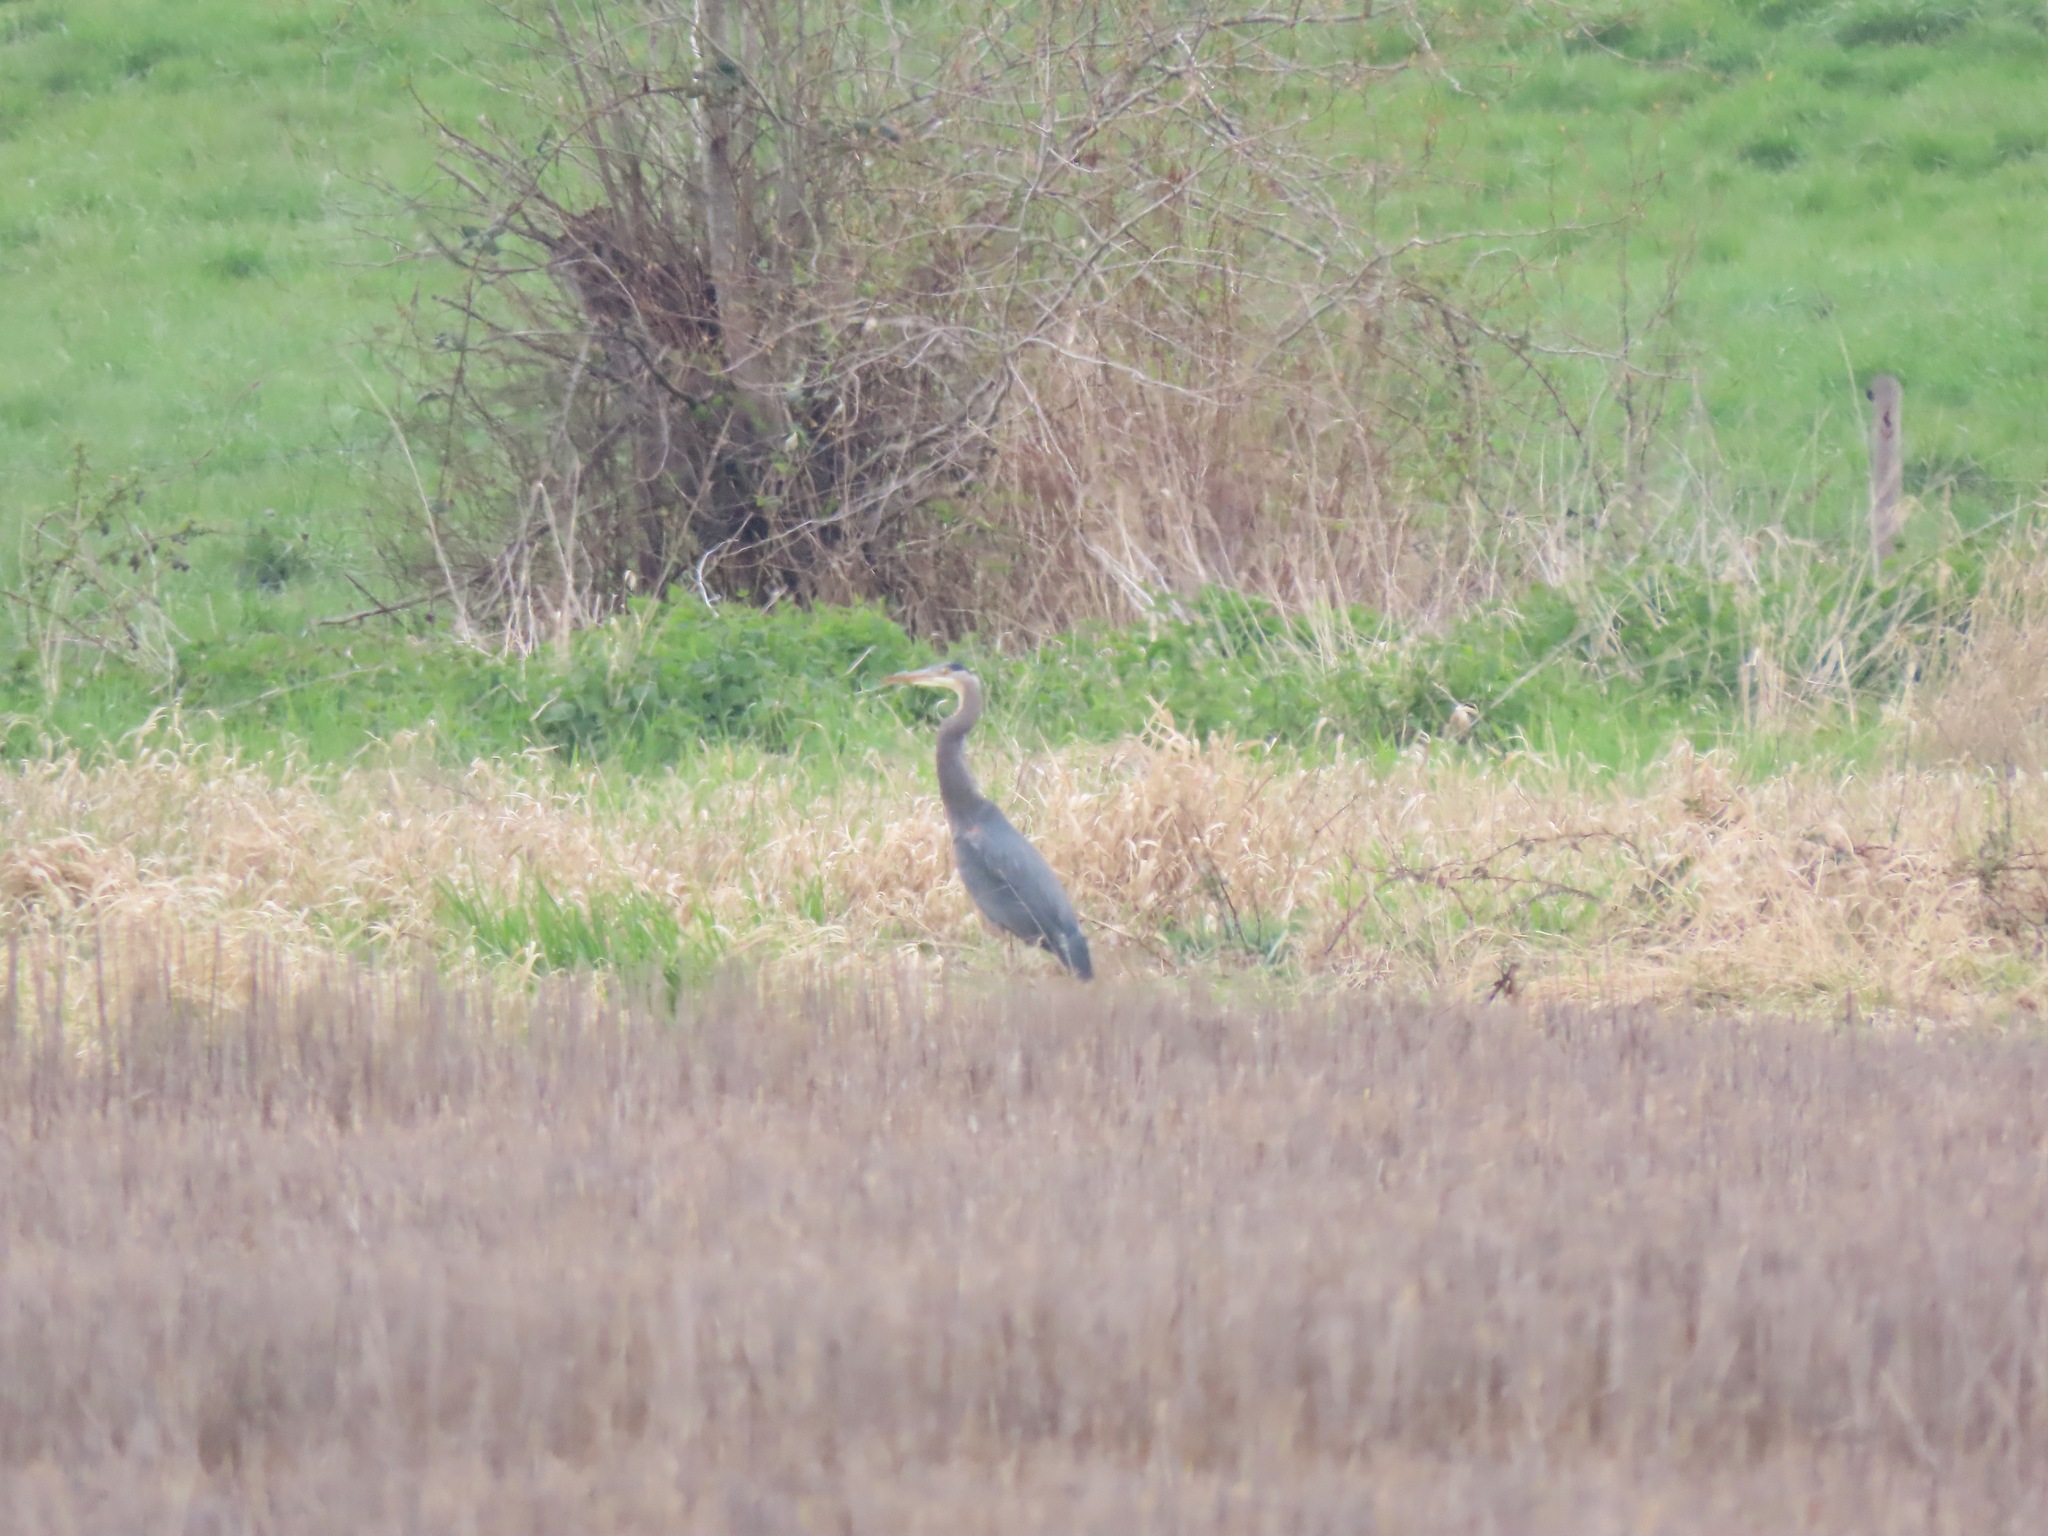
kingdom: Animalia
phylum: Chordata
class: Aves
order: Pelecaniformes
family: Ardeidae
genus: Ardea
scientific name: Ardea herodias
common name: Great blue heron
